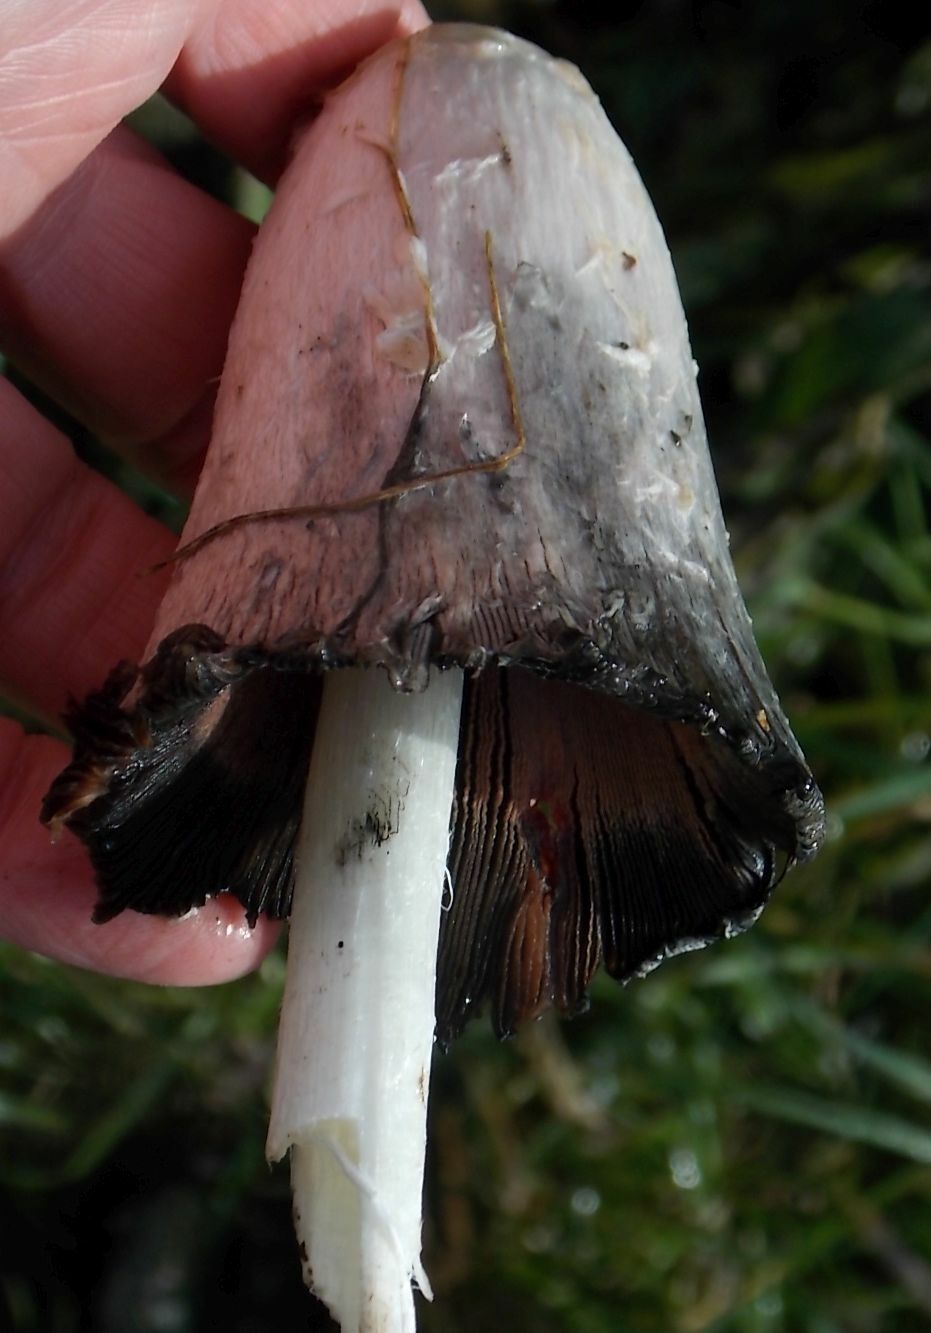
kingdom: Fungi
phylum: Basidiomycota
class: Agaricomycetes
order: Agaricales
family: Agaricaceae
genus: Coprinus
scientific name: Coprinus comatus
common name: Lawyer's wig
